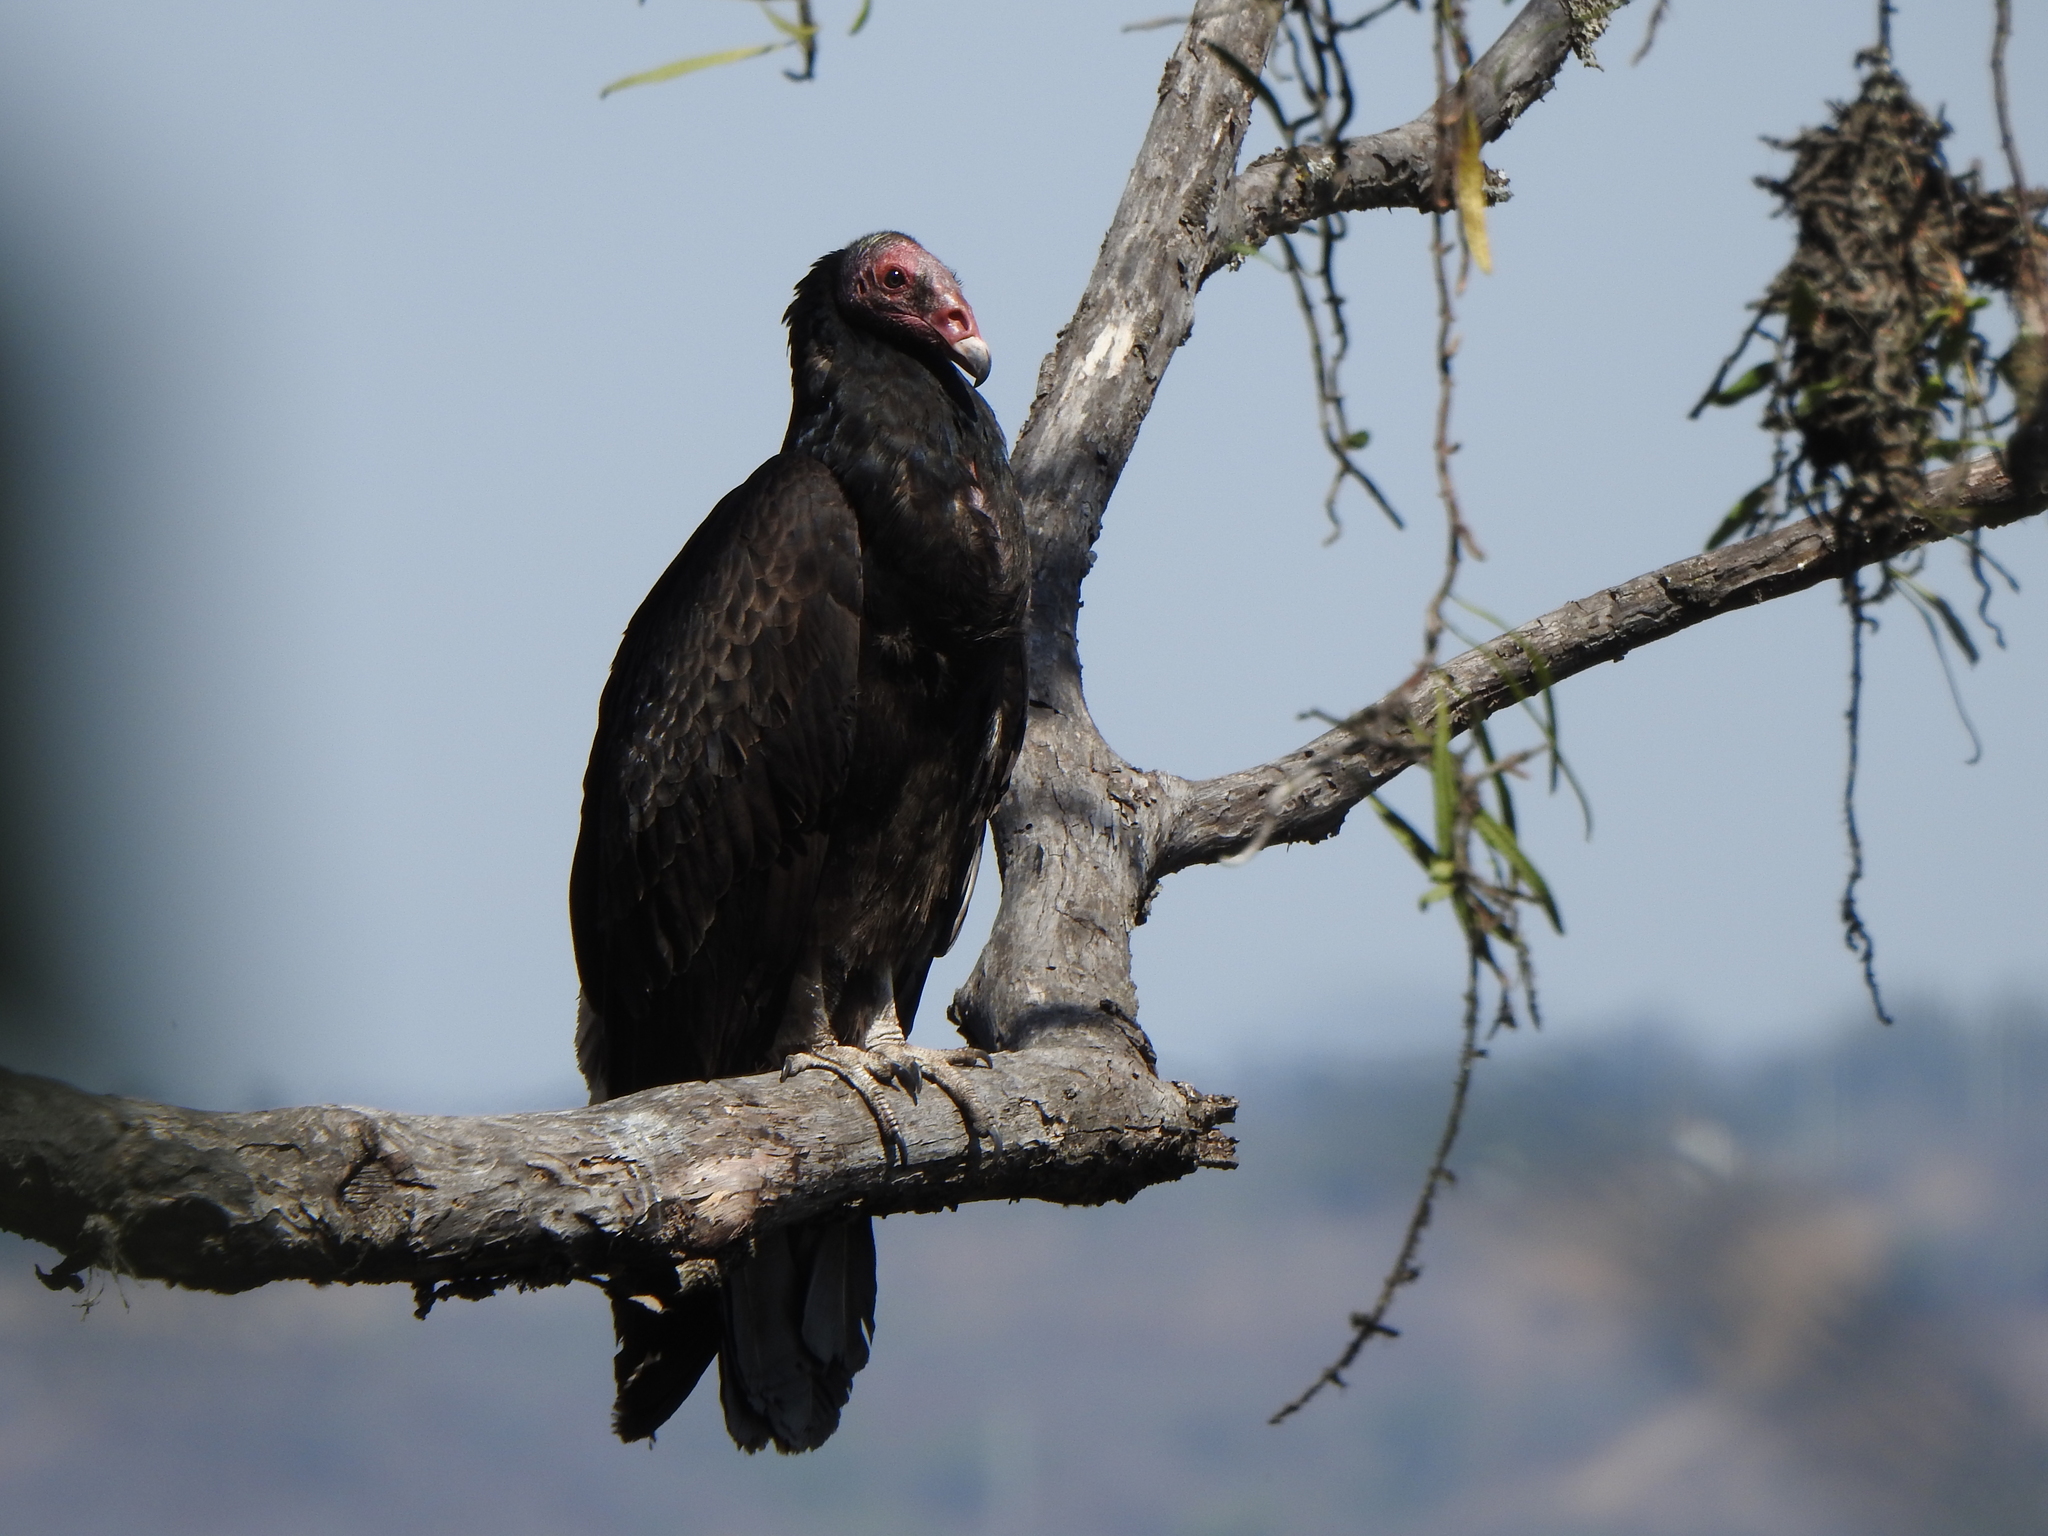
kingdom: Animalia
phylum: Chordata
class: Aves
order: Accipitriformes
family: Cathartidae
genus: Cathartes
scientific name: Cathartes aura
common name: Turkey vulture
